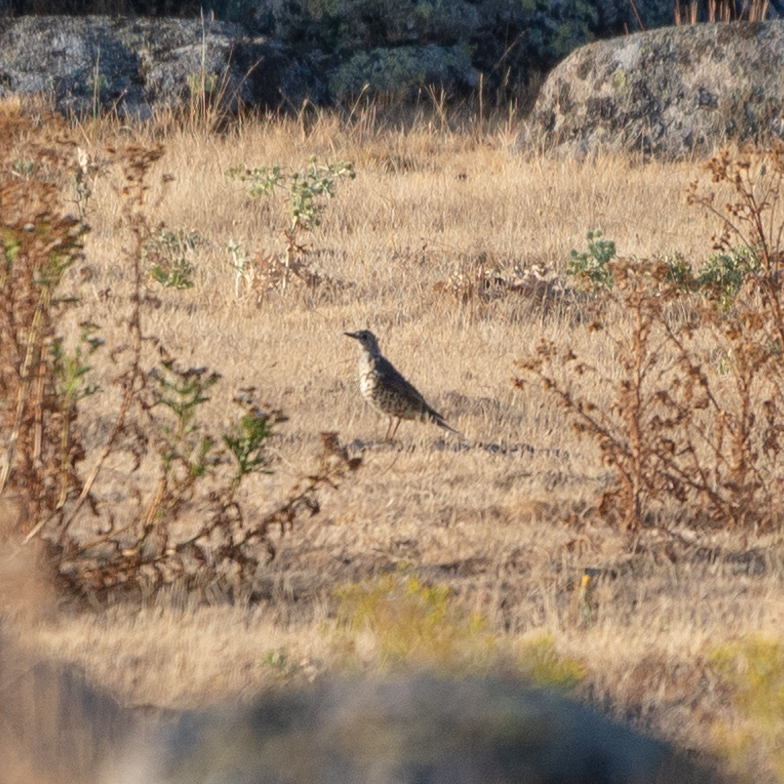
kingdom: Animalia
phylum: Chordata
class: Aves
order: Passeriformes
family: Turdidae
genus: Turdus
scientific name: Turdus viscivorus
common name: Mistle thrush
